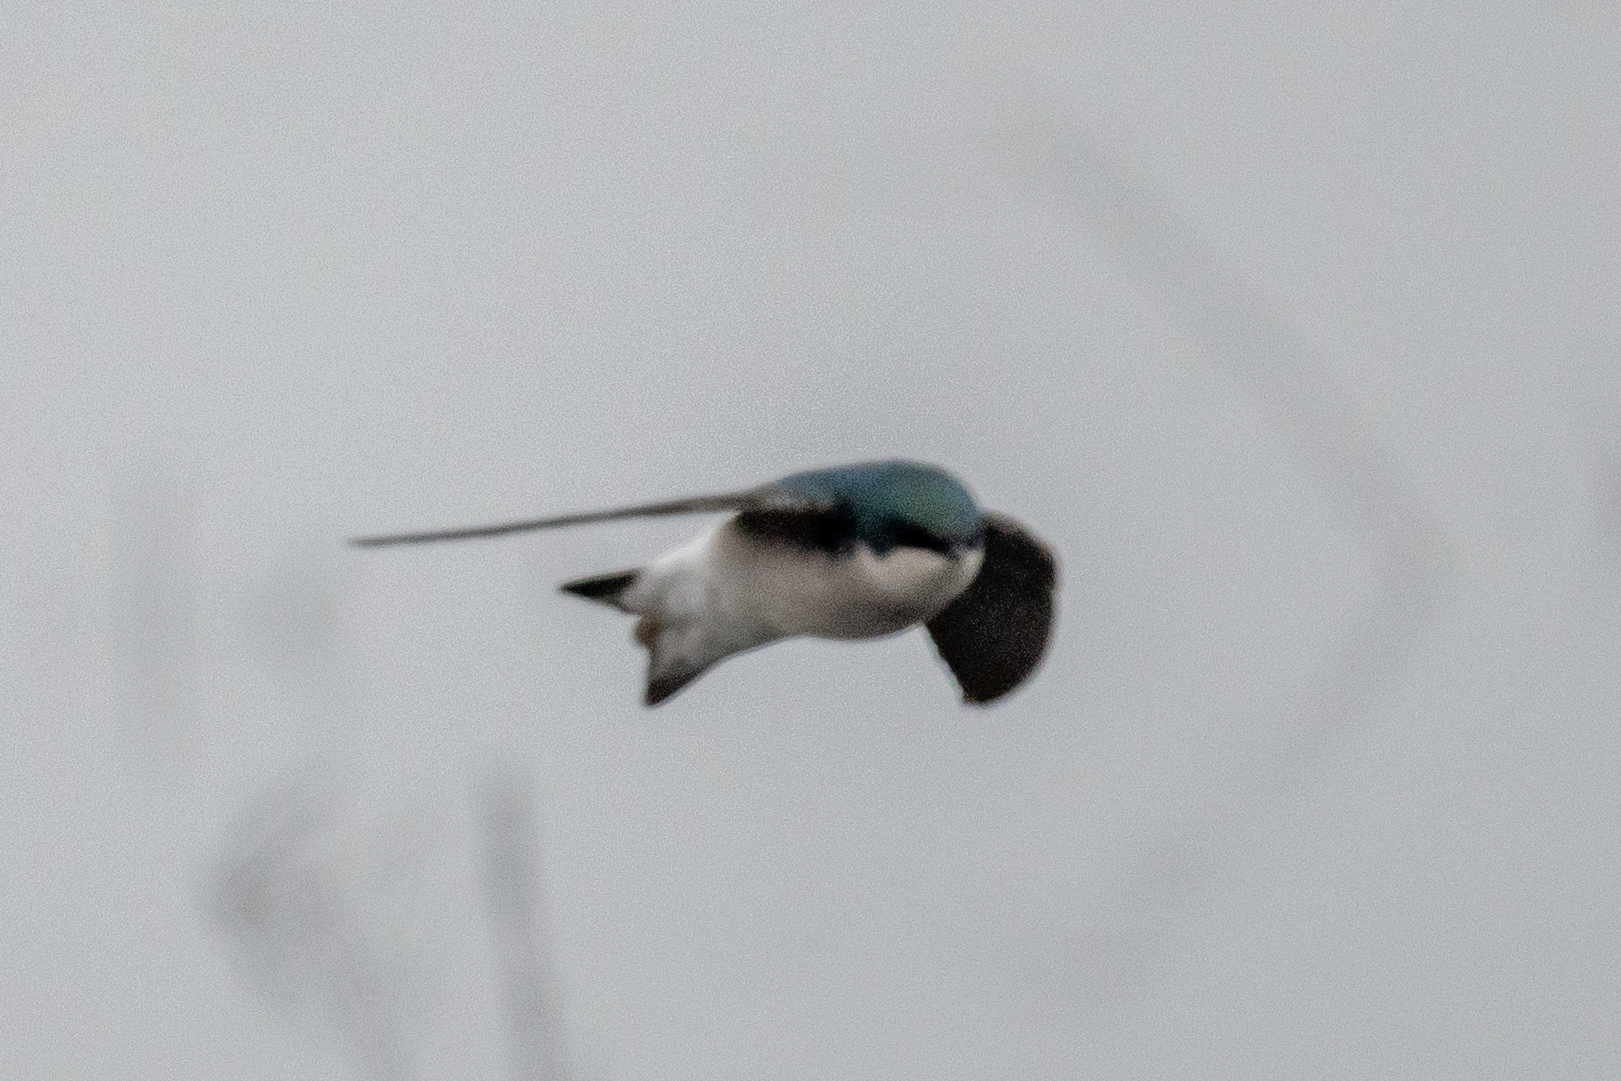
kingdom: Animalia
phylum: Chordata
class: Aves
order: Passeriformes
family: Hirundinidae
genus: Tachycineta
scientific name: Tachycineta bicolor
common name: Tree swallow
